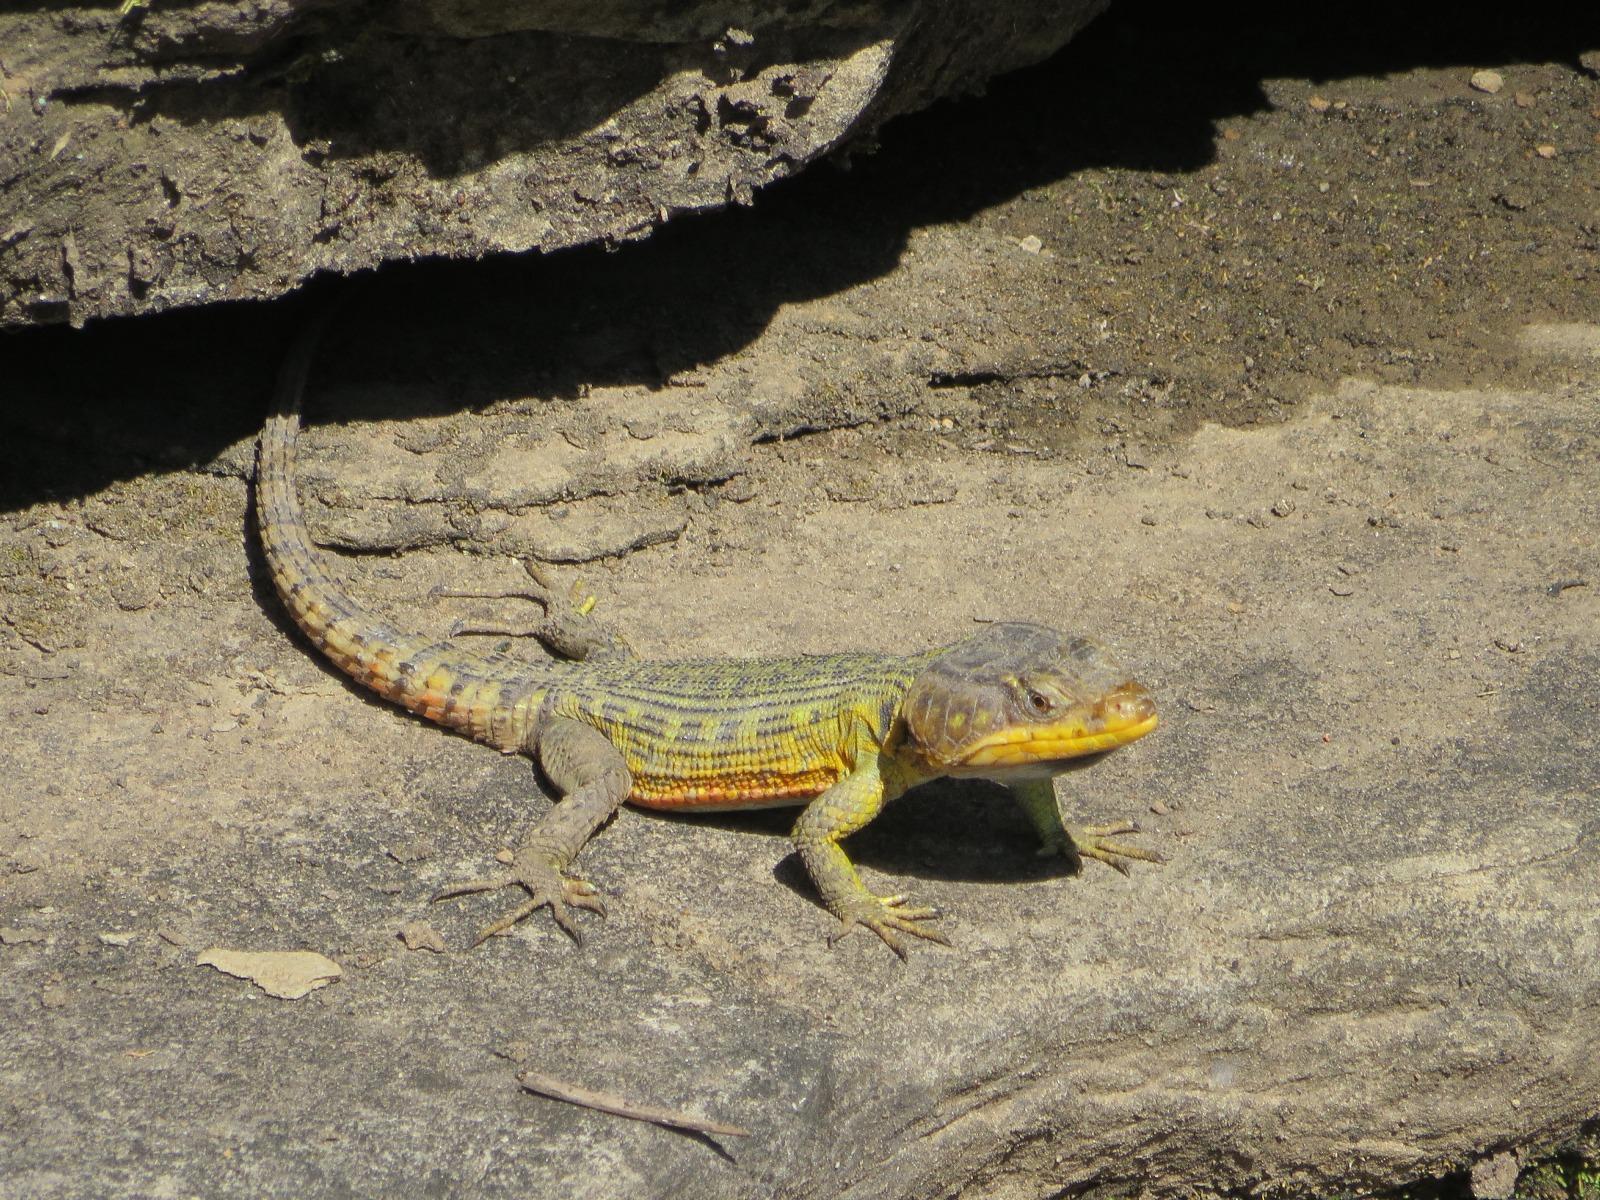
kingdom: Animalia
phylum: Chordata
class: Squamata
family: Cordylidae
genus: Pseudocordylus
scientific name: Pseudocordylus subviridis
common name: Drakensberg crag lizard
